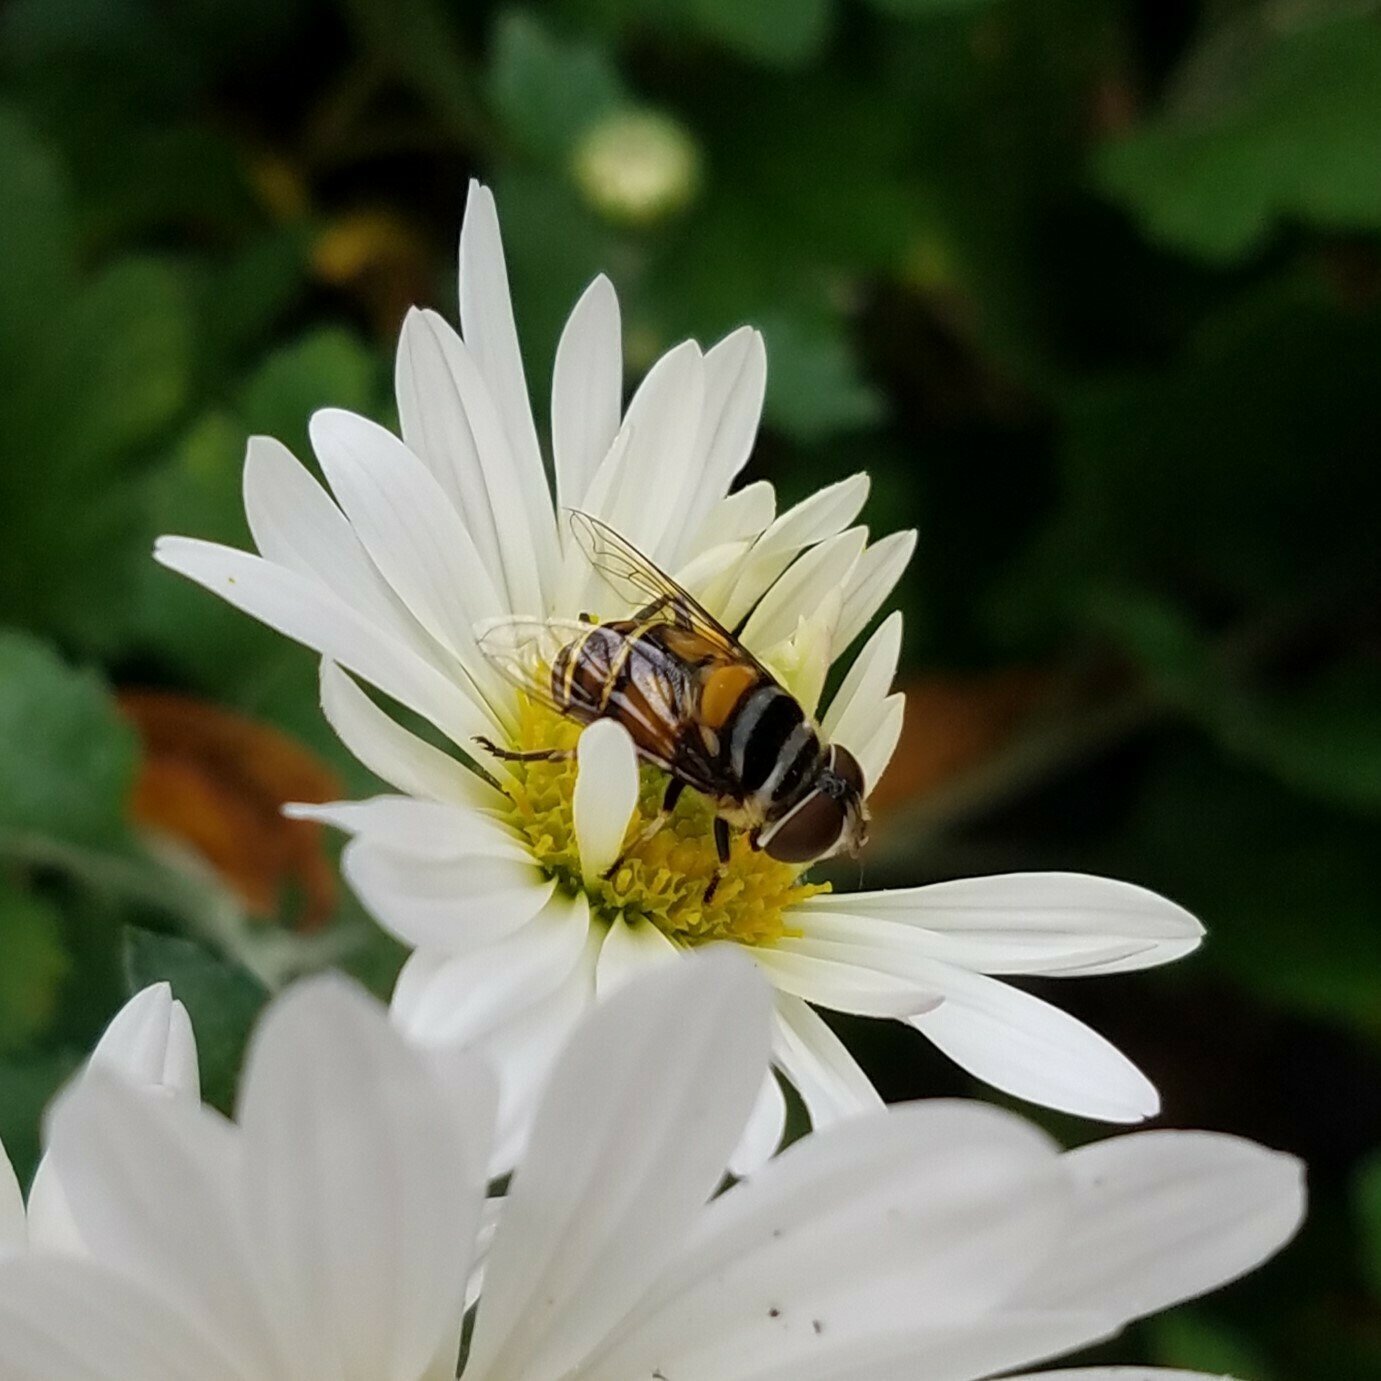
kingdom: Animalia
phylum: Arthropoda
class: Insecta
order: Diptera
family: Syrphidae
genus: Palpada
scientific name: Palpada agrorum
